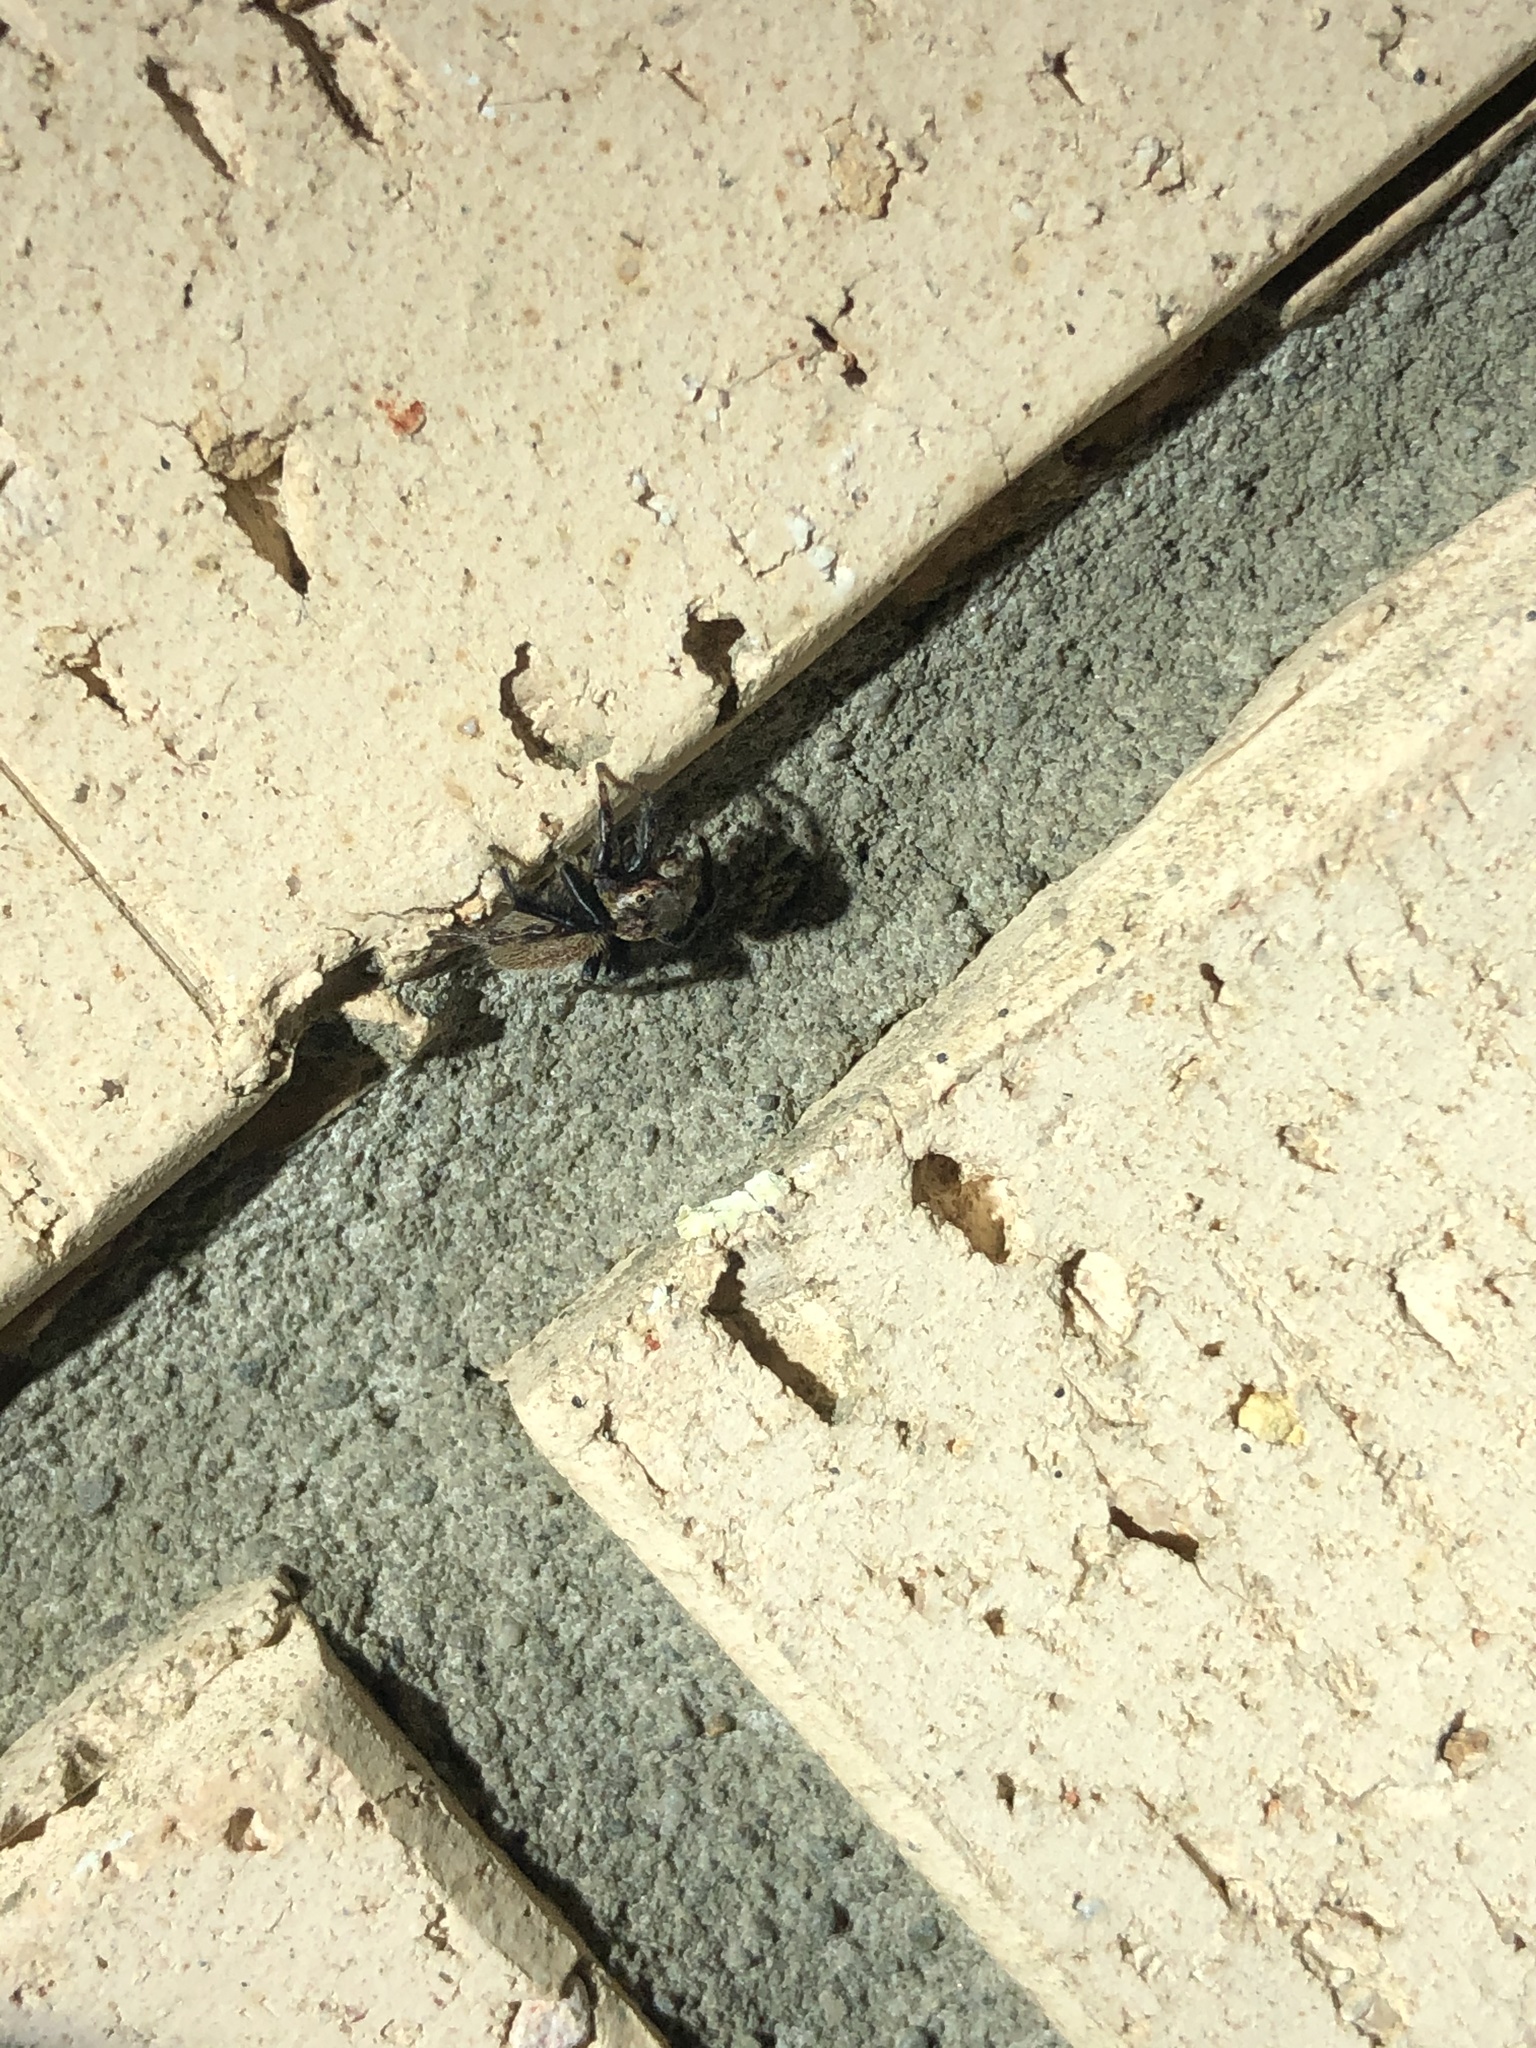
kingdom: Animalia
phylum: Arthropoda
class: Arachnida
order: Araneae
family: Salticidae
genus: Maratus
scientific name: Maratus griseus
